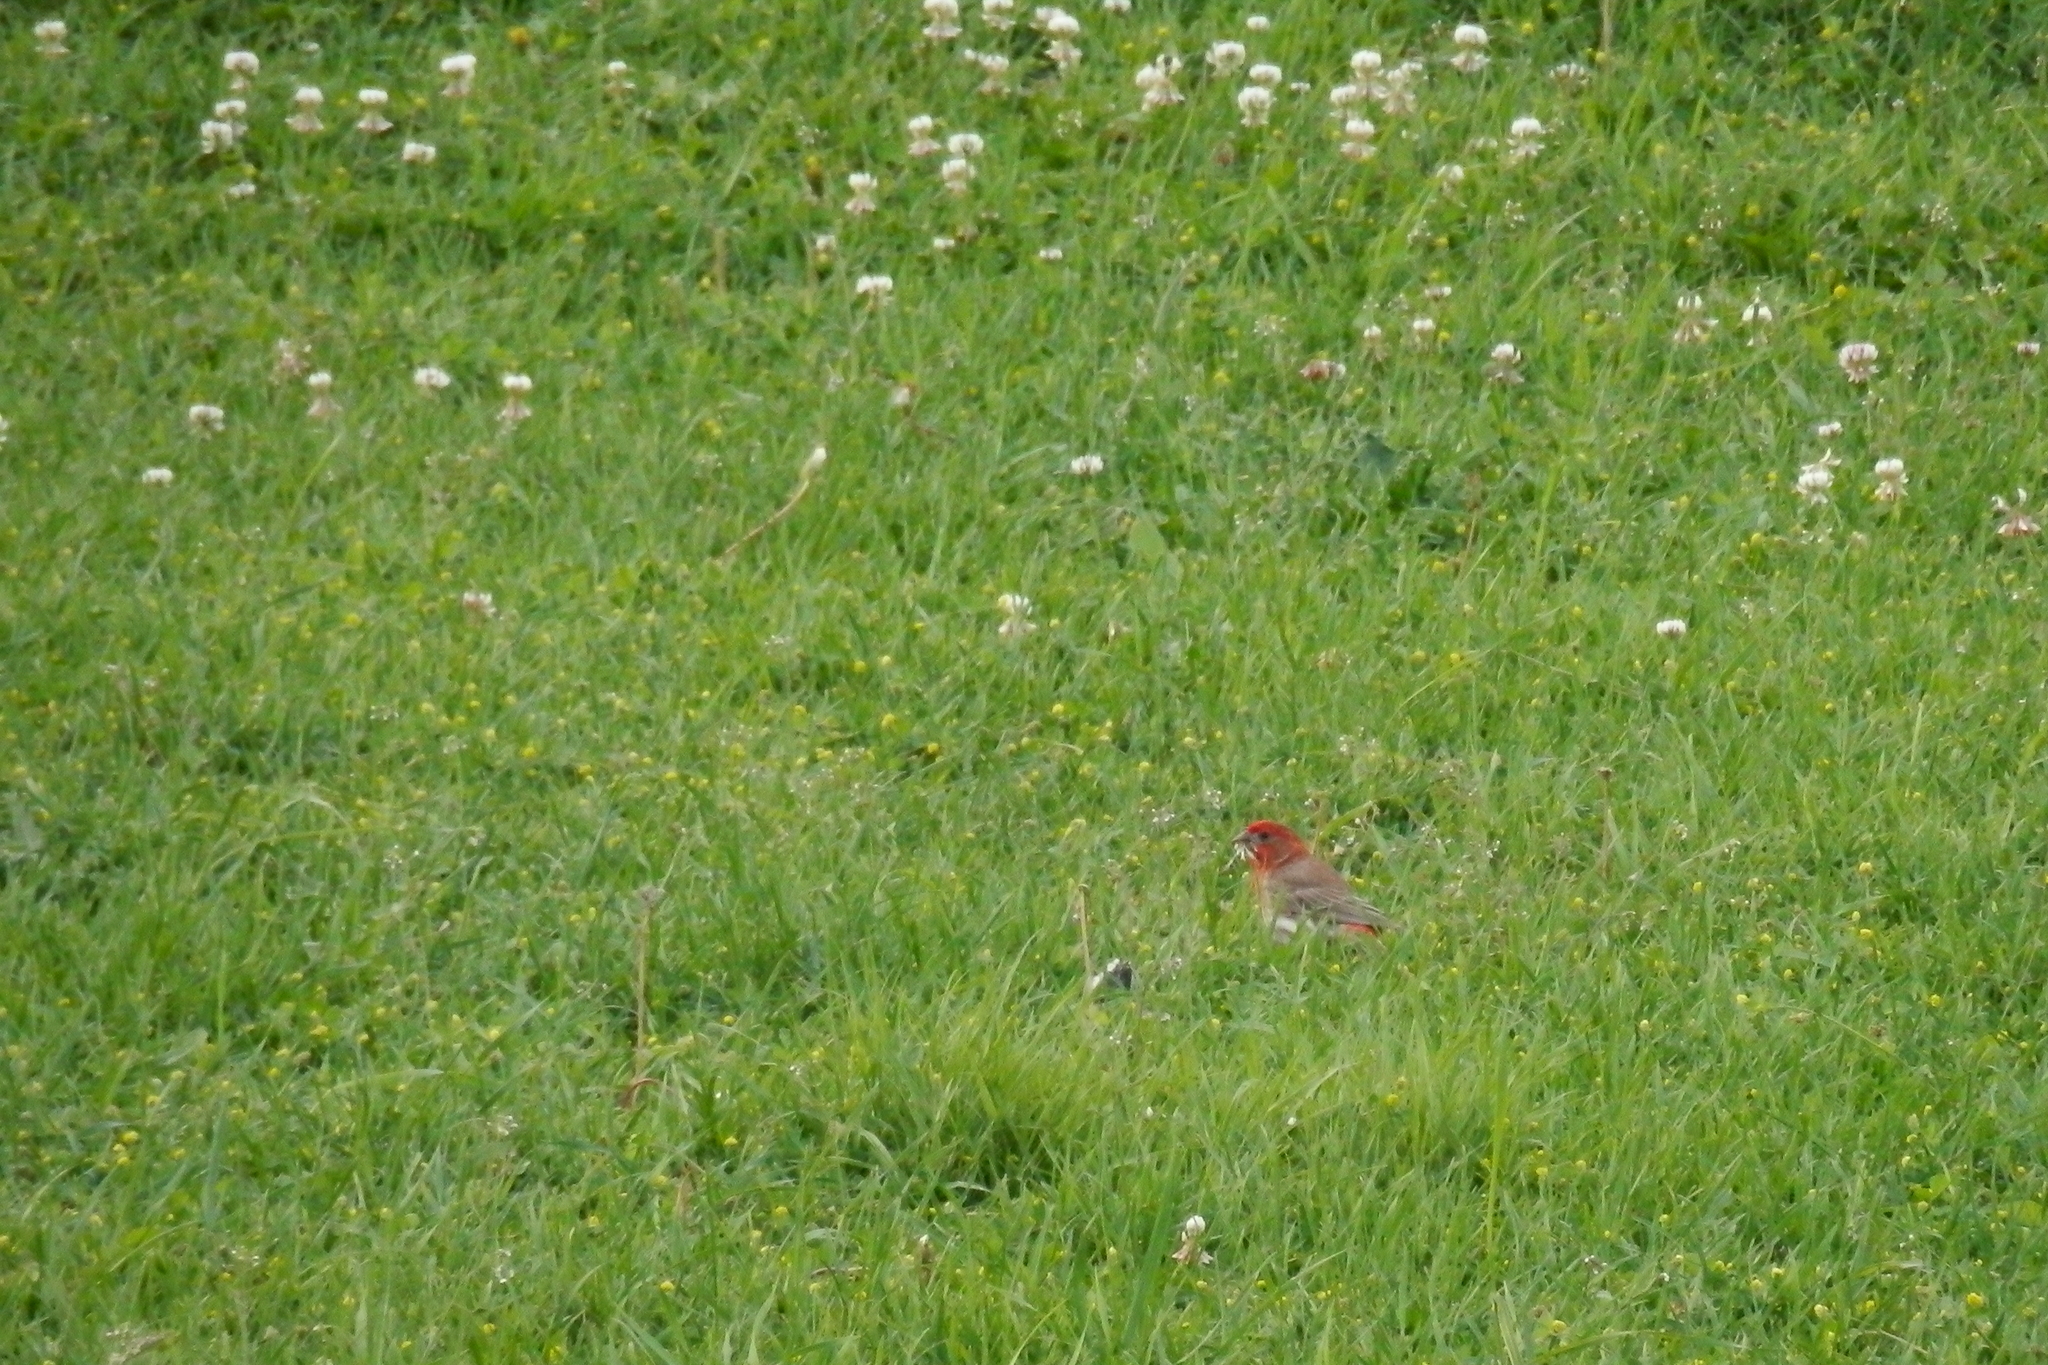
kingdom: Animalia
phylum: Chordata
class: Aves
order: Passeriformes
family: Fringillidae
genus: Haemorhous
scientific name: Haemorhous mexicanus
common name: House finch
